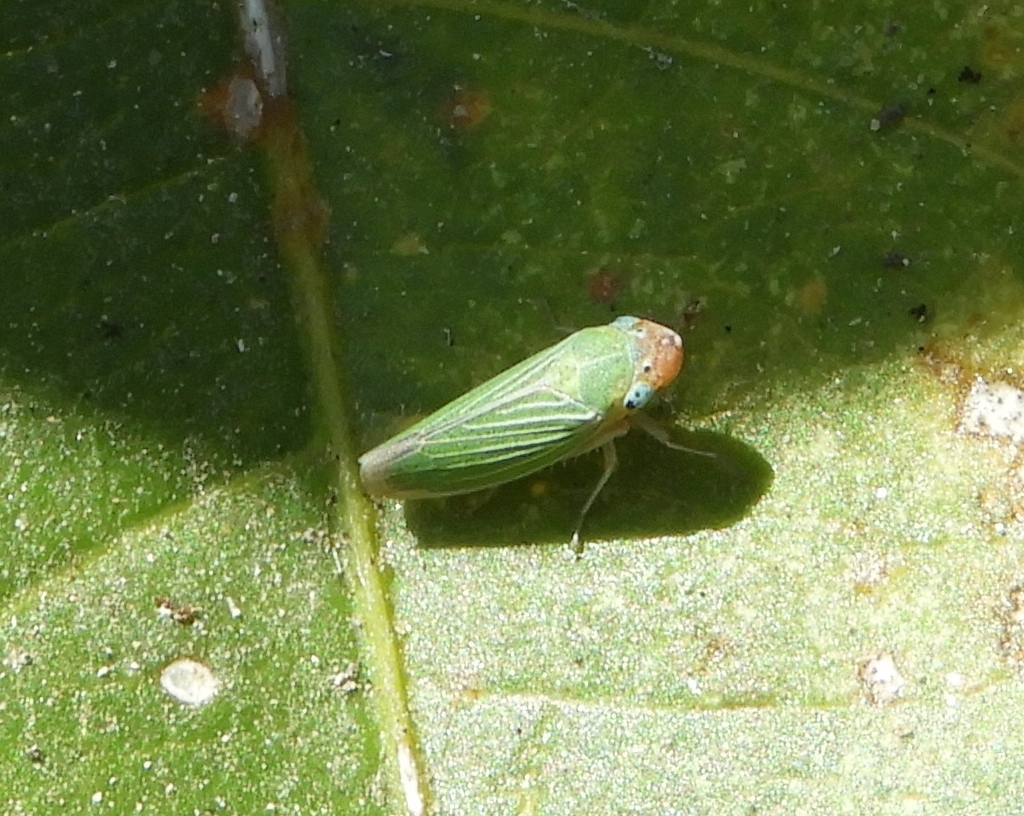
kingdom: Animalia
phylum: Arthropoda
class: Insecta
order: Hemiptera
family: Cicadellidae
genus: Xyphon
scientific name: Xyphon
